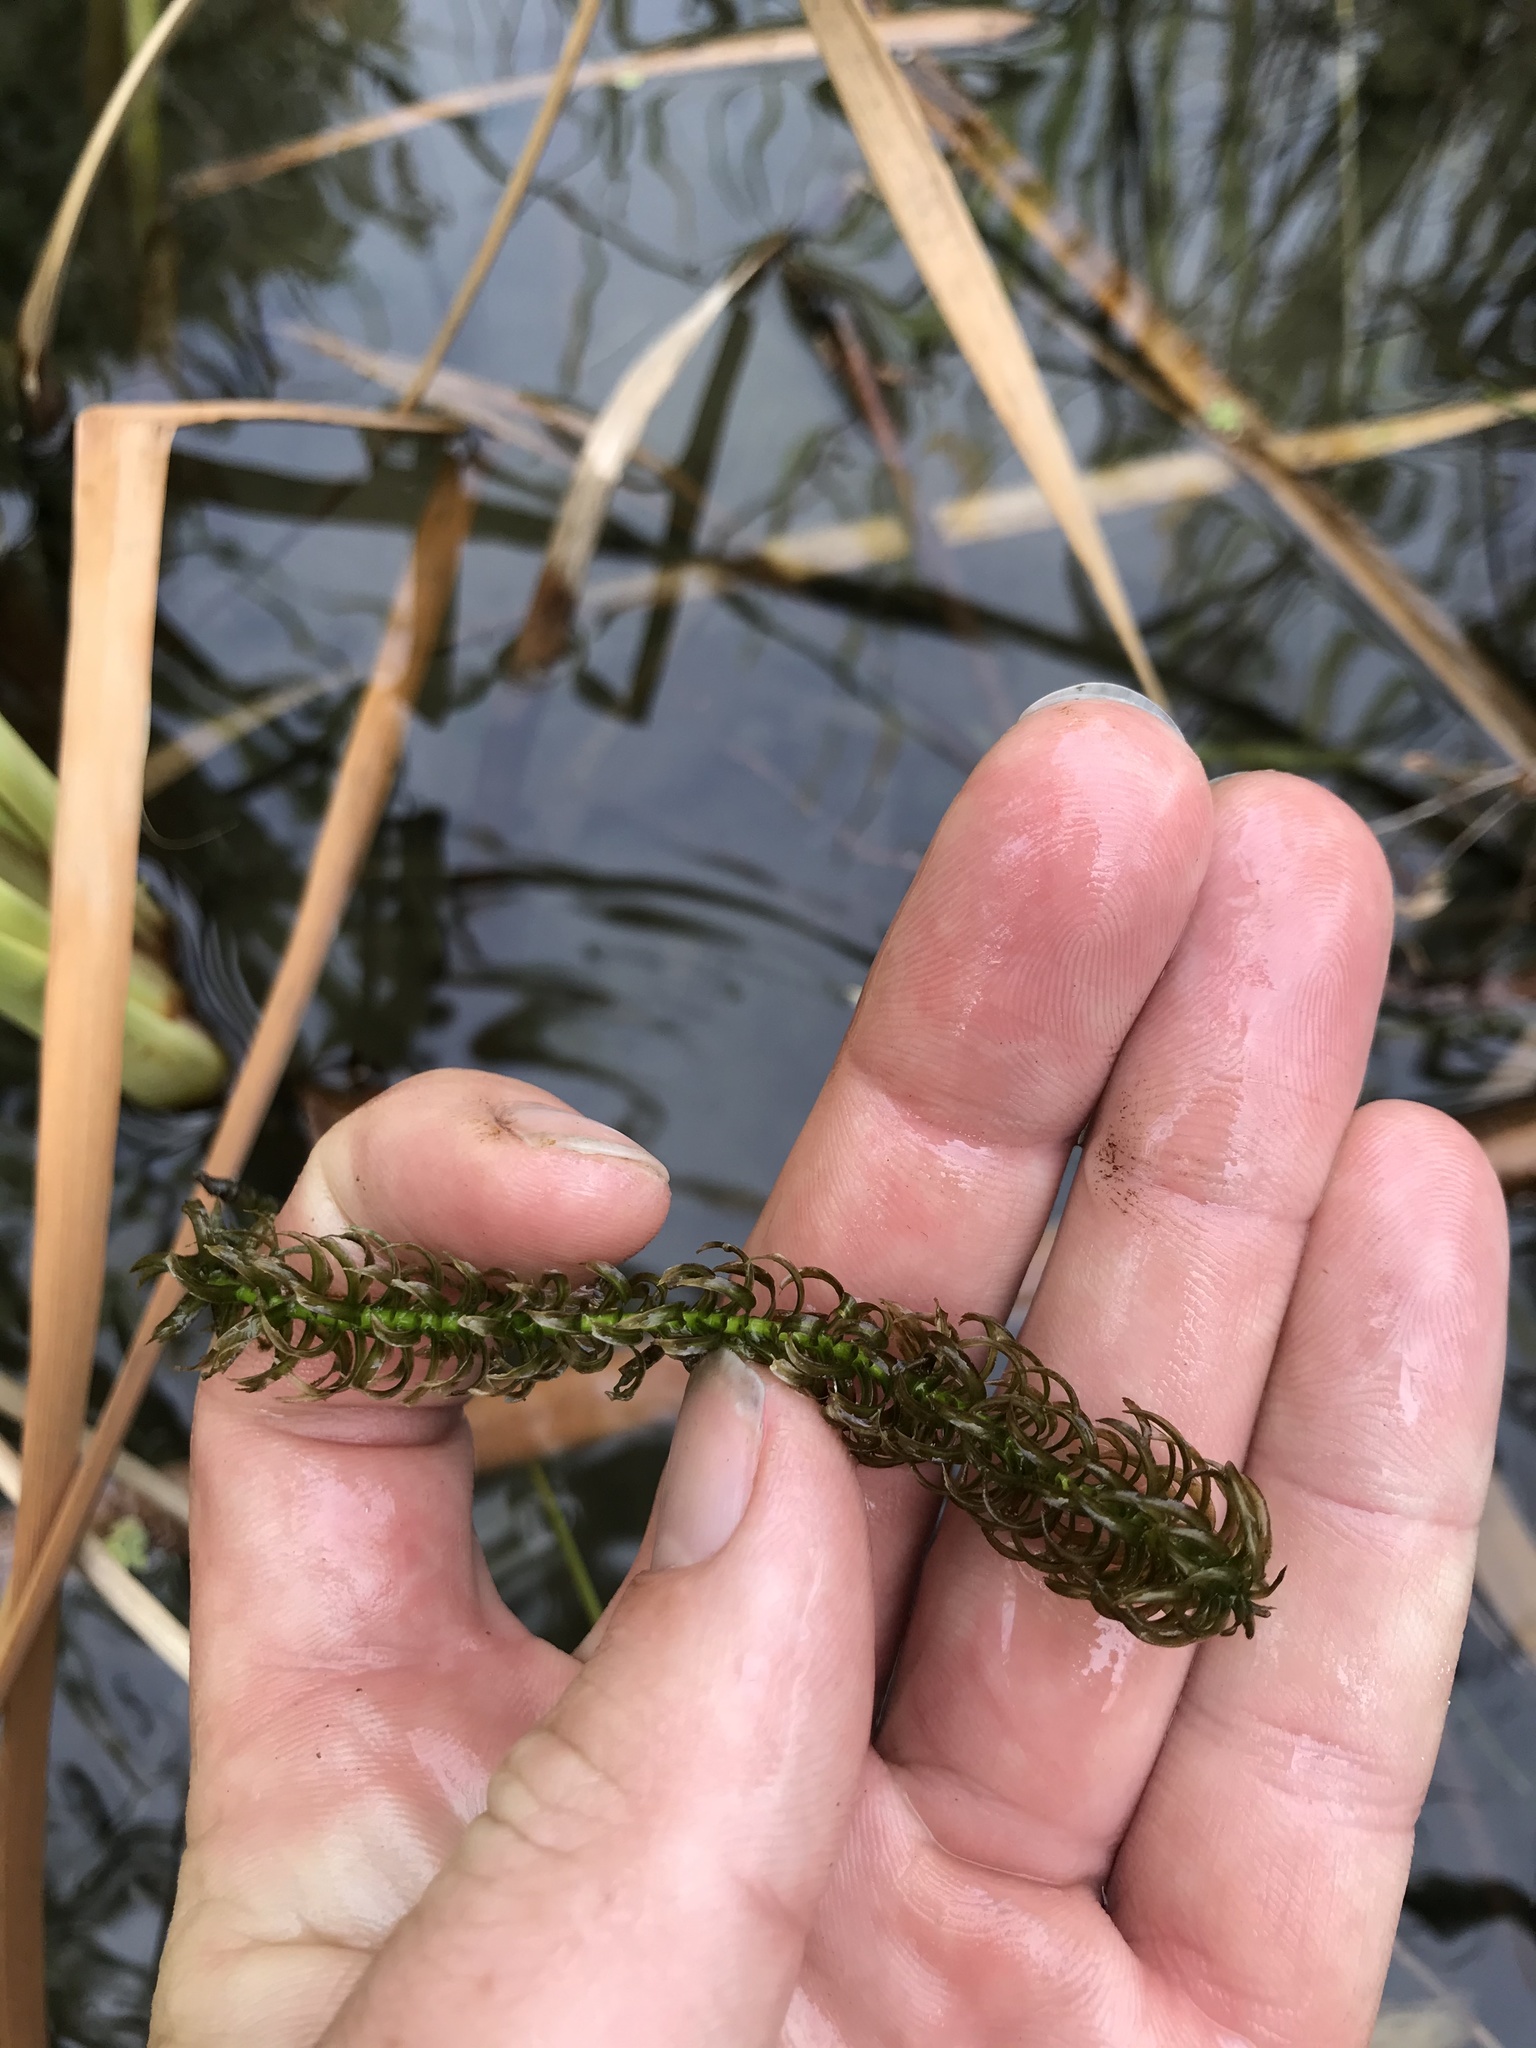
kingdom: Plantae
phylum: Tracheophyta
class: Liliopsida
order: Alismatales
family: Hydrocharitaceae
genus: Lagarosiphon
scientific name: Lagarosiphon major
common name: Curly waterweed
